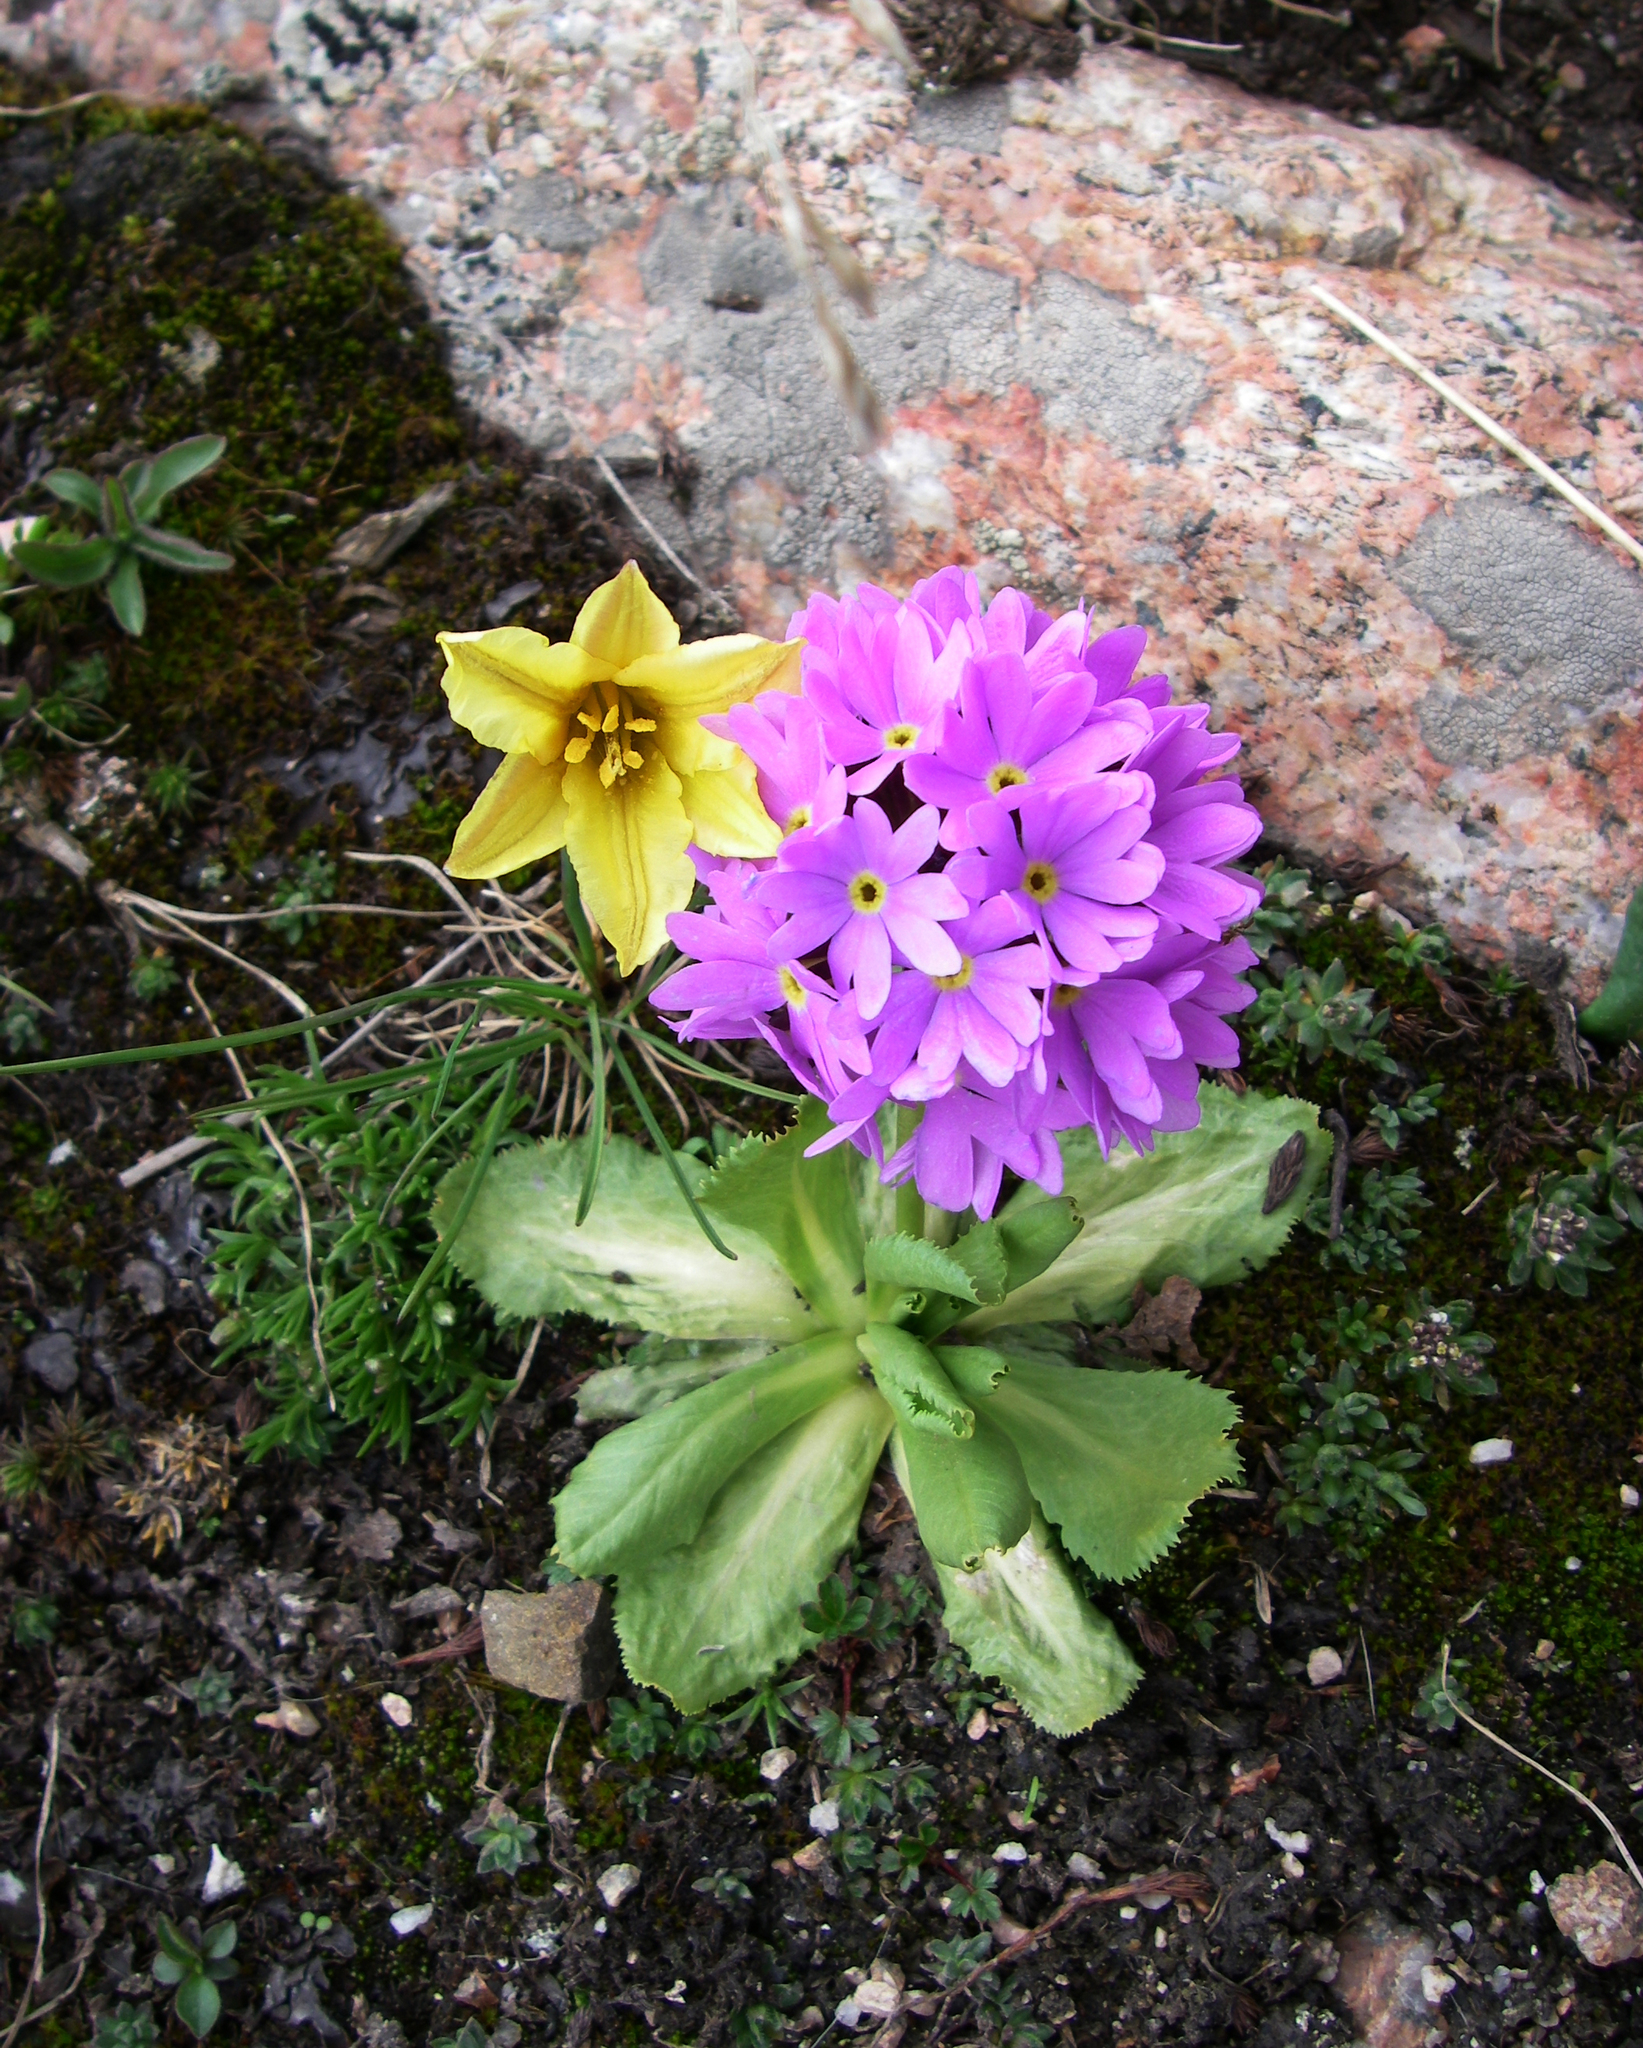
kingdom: Plantae
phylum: Tracheophyta
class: Liliopsida
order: Liliales
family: Liliaceae
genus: Tulipa
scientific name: Tulipa heterophylla
